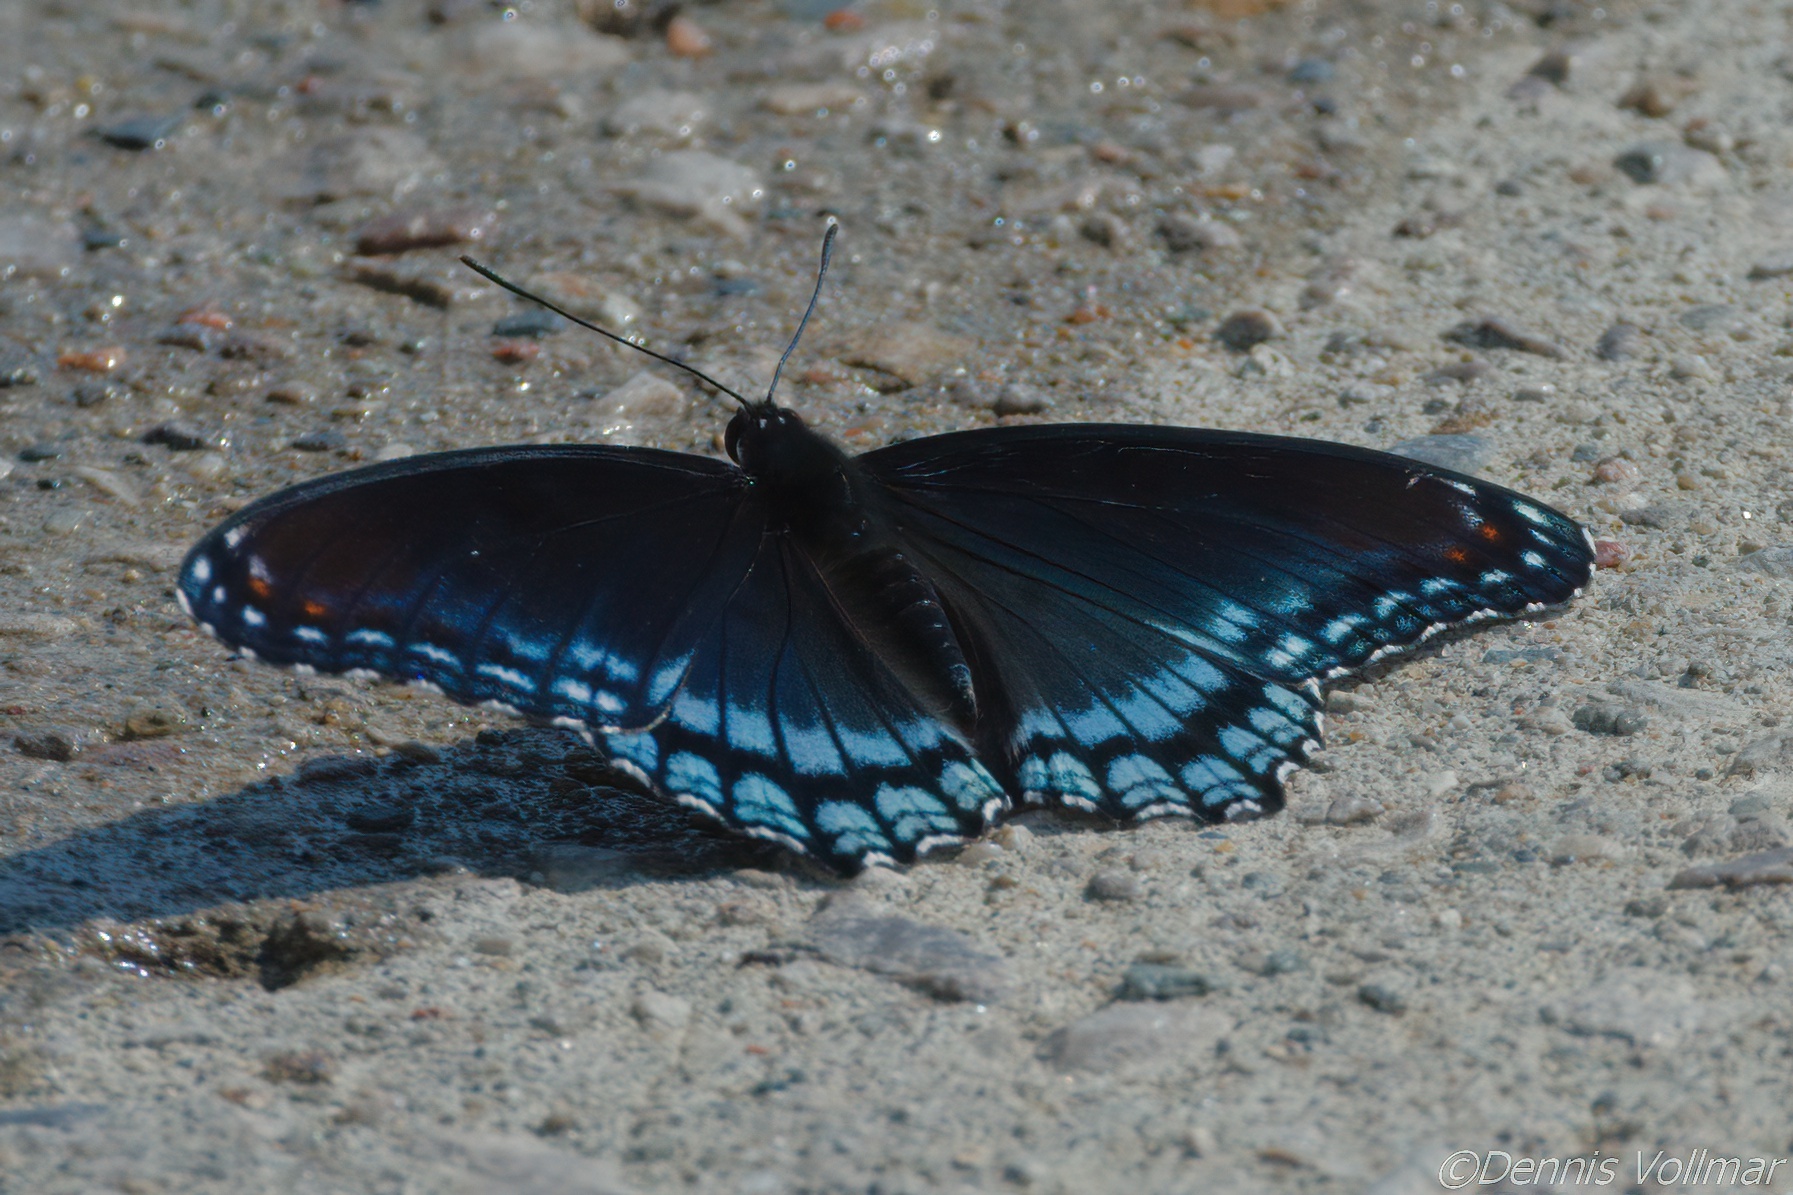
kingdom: Animalia
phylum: Arthropoda
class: Insecta
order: Lepidoptera
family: Nymphalidae
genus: Limenitis
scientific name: Limenitis arthemis
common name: Red-spotted admiral
